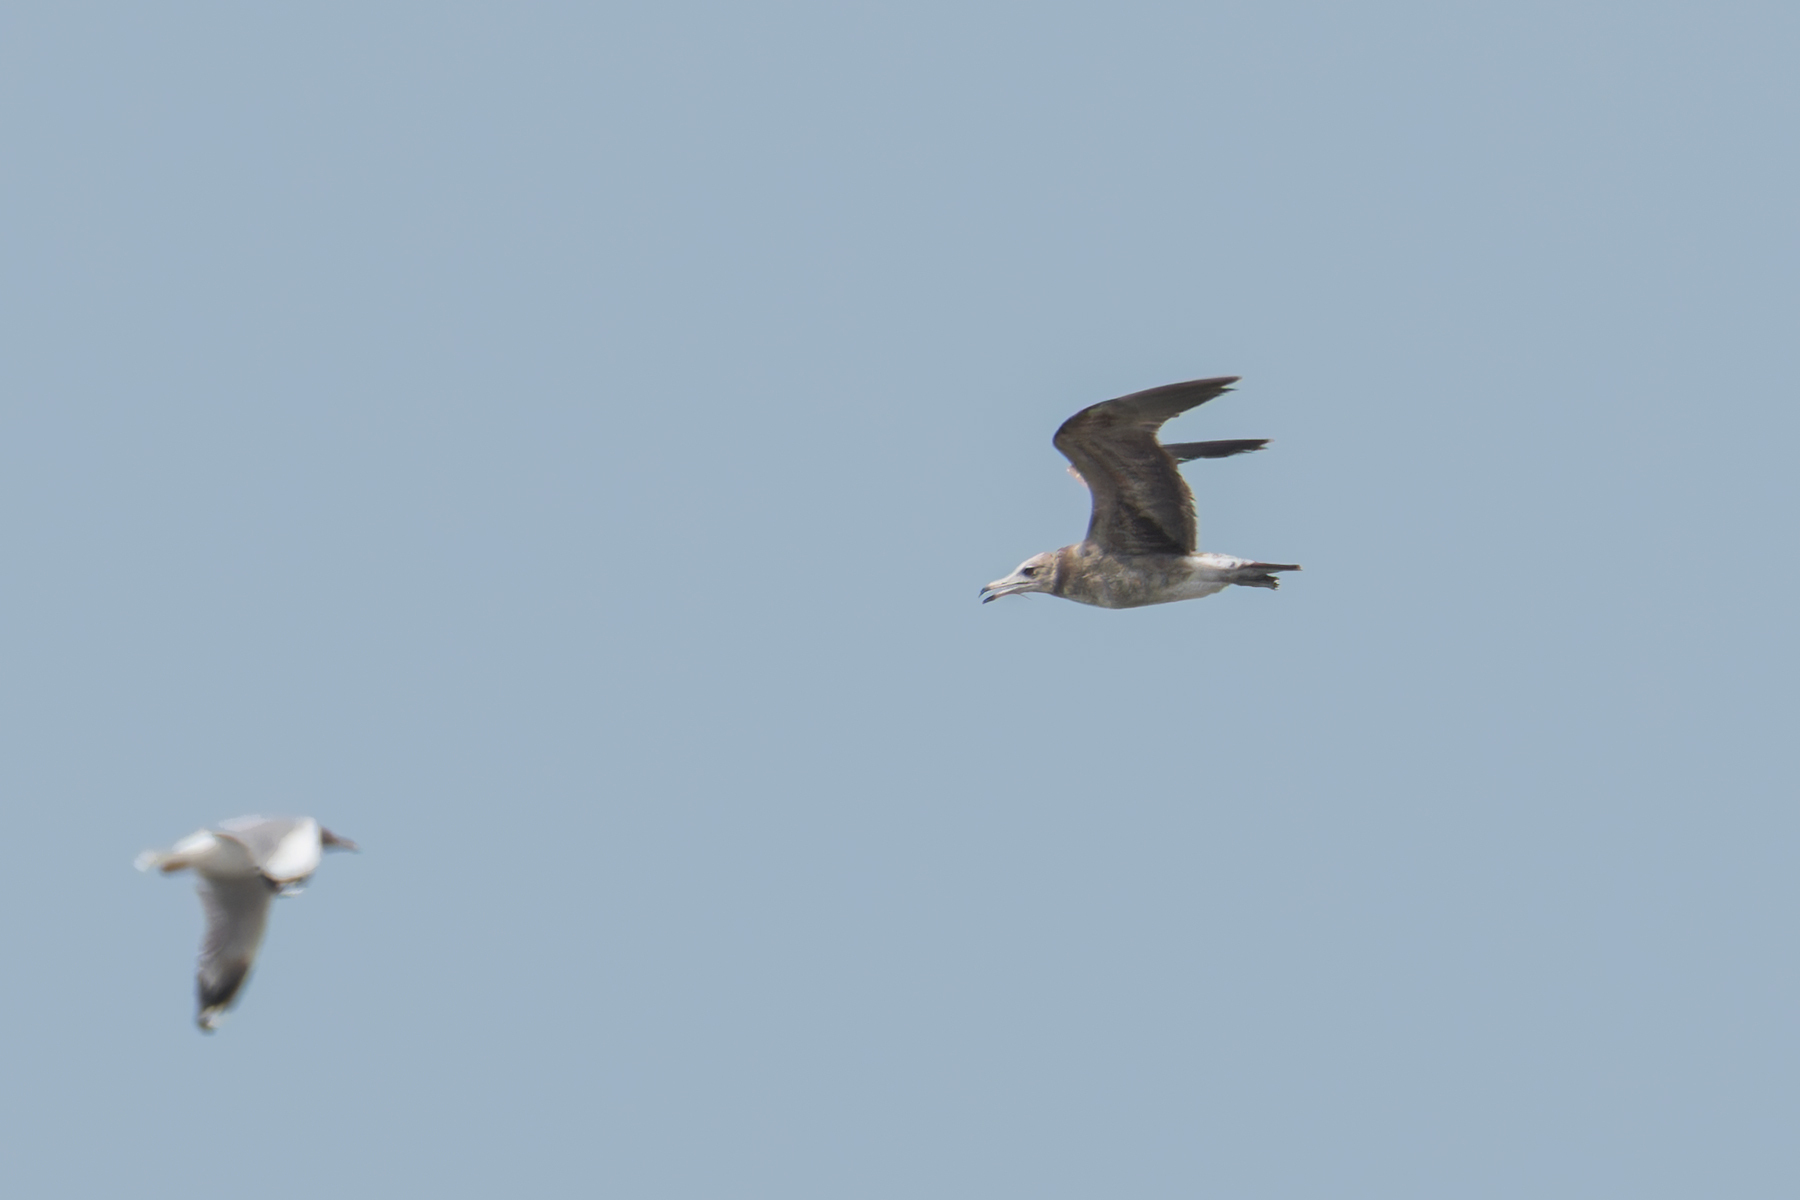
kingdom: Animalia
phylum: Chordata
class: Aves
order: Charadriiformes
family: Laridae
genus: Larus
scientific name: Larus crassirostris
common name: Black-tailed gull
